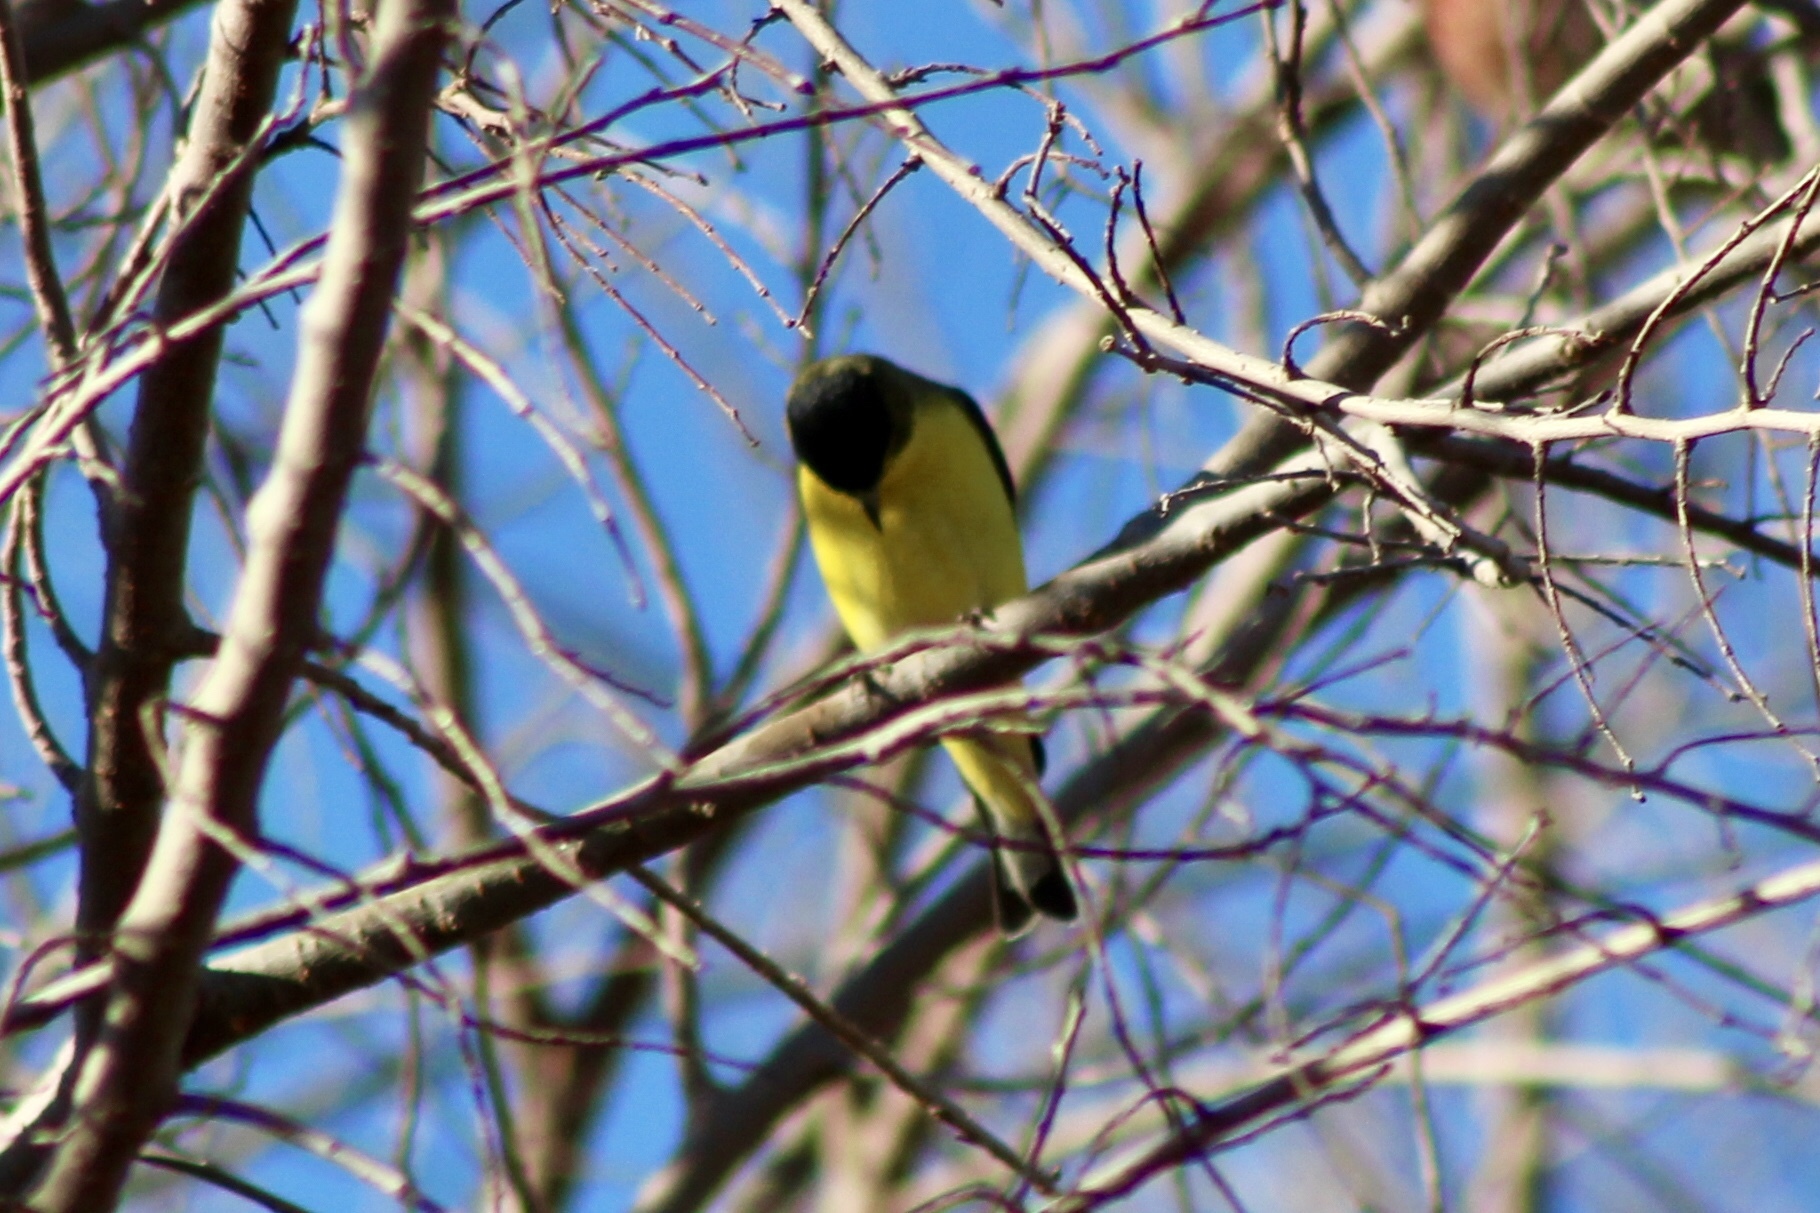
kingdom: Animalia
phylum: Chordata
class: Aves
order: Passeriformes
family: Fringillidae
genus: Spinus
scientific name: Spinus psaltria
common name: Lesser goldfinch
